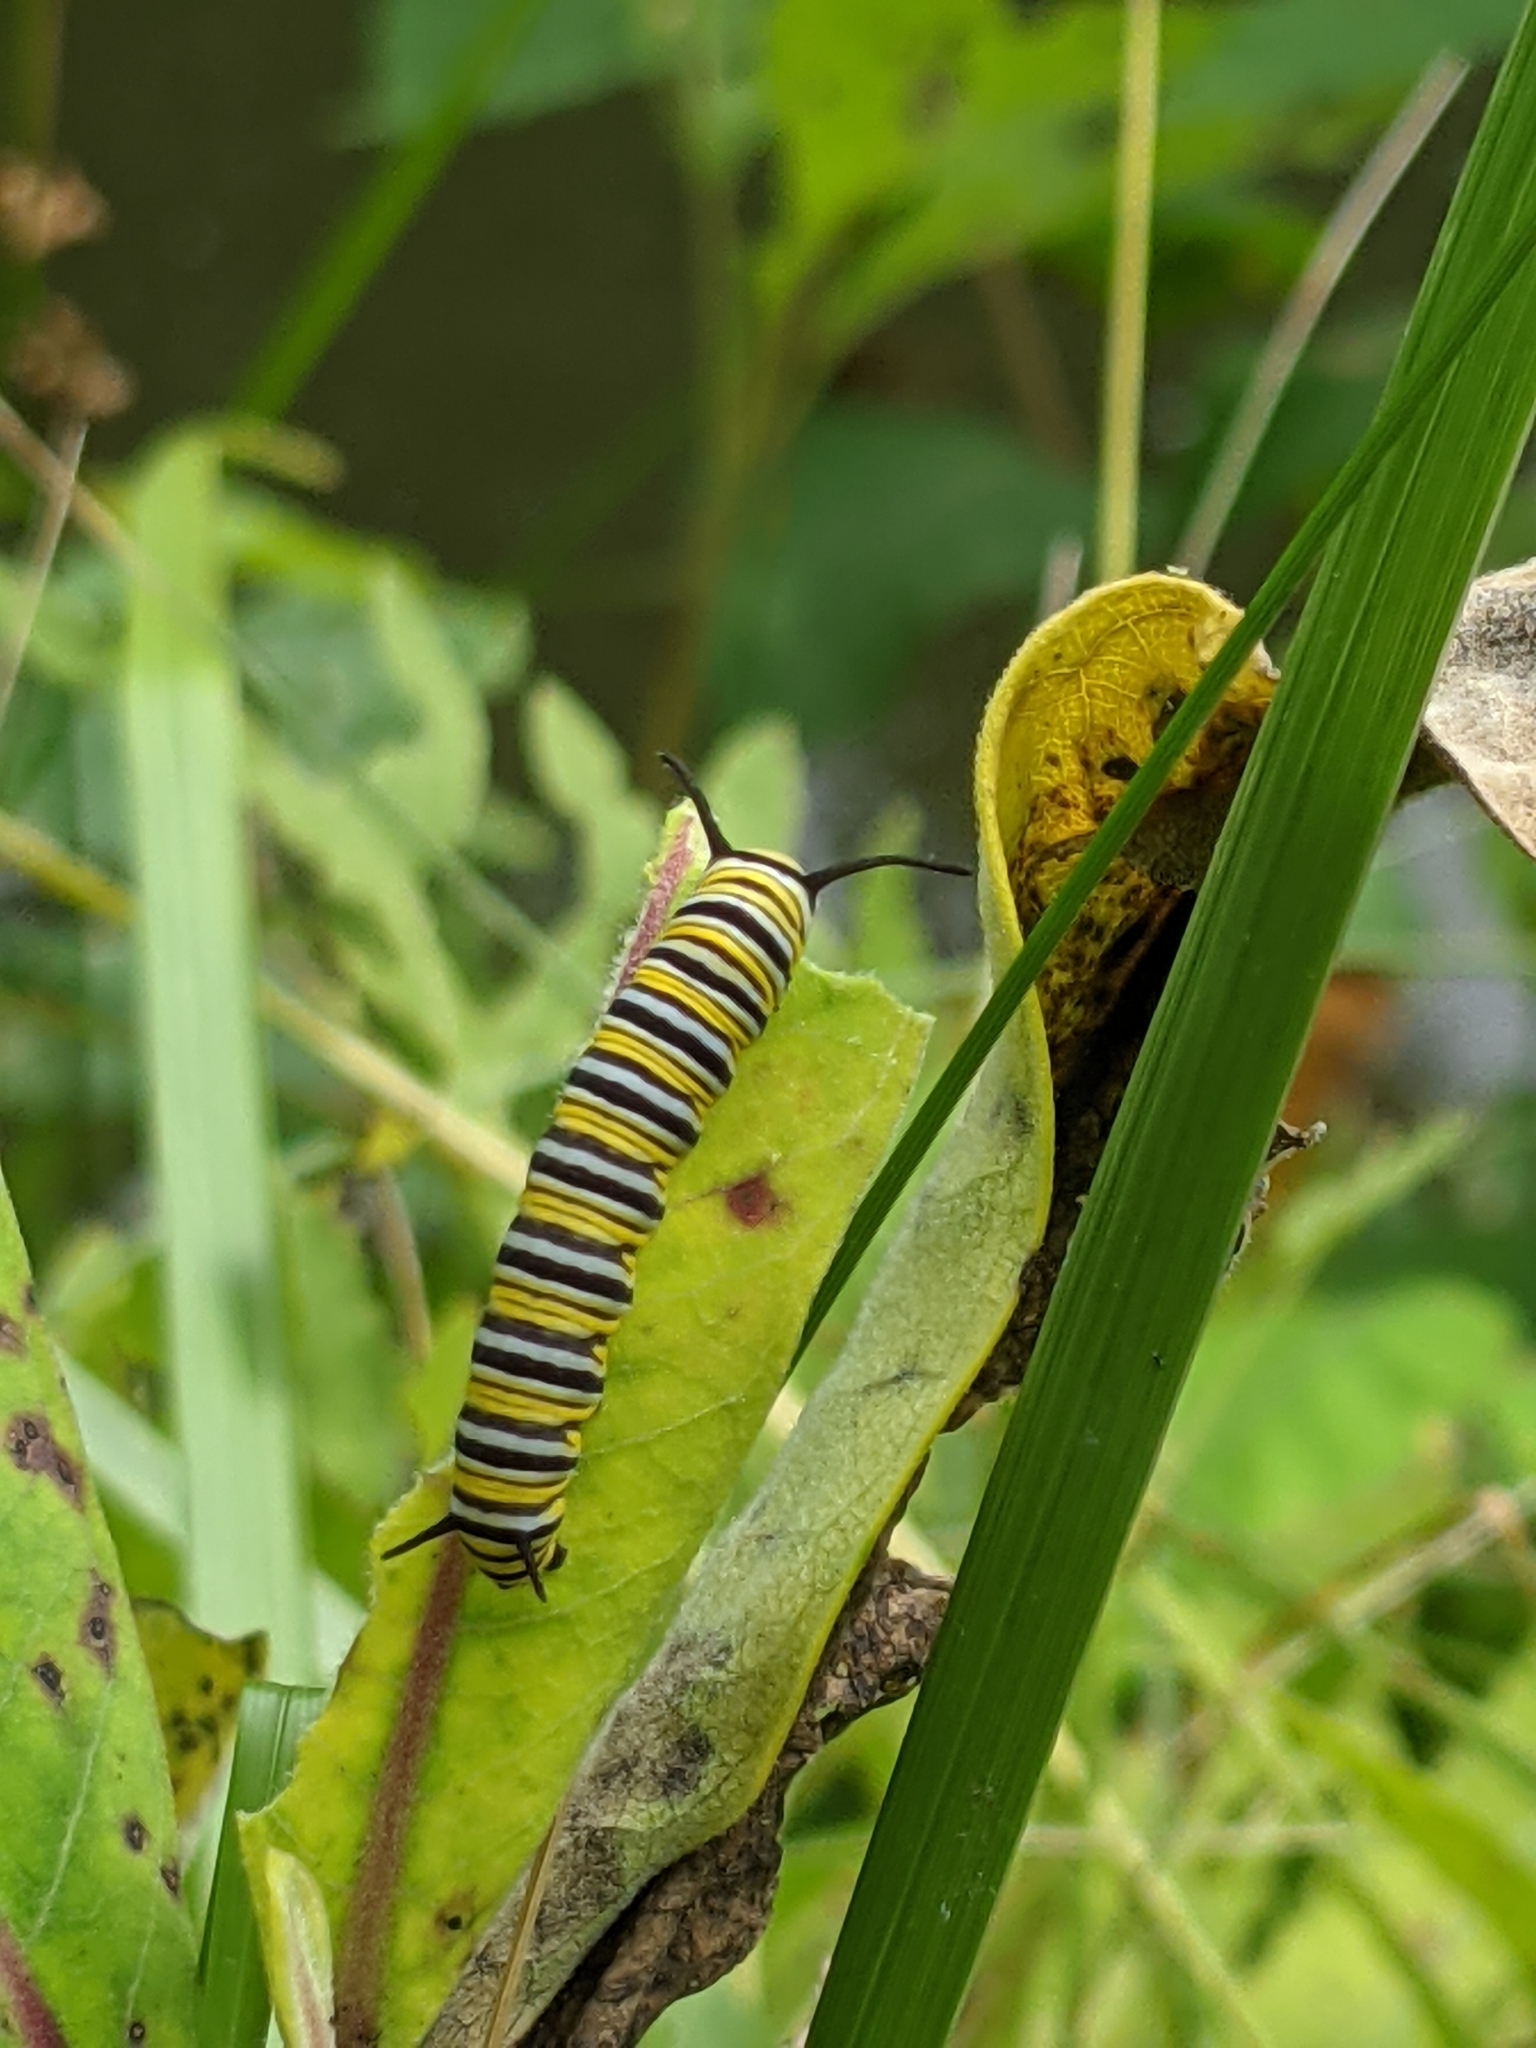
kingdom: Animalia
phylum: Arthropoda
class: Insecta
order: Lepidoptera
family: Nymphalidae
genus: Danaus
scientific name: Danaus plexippus
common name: Monarch
